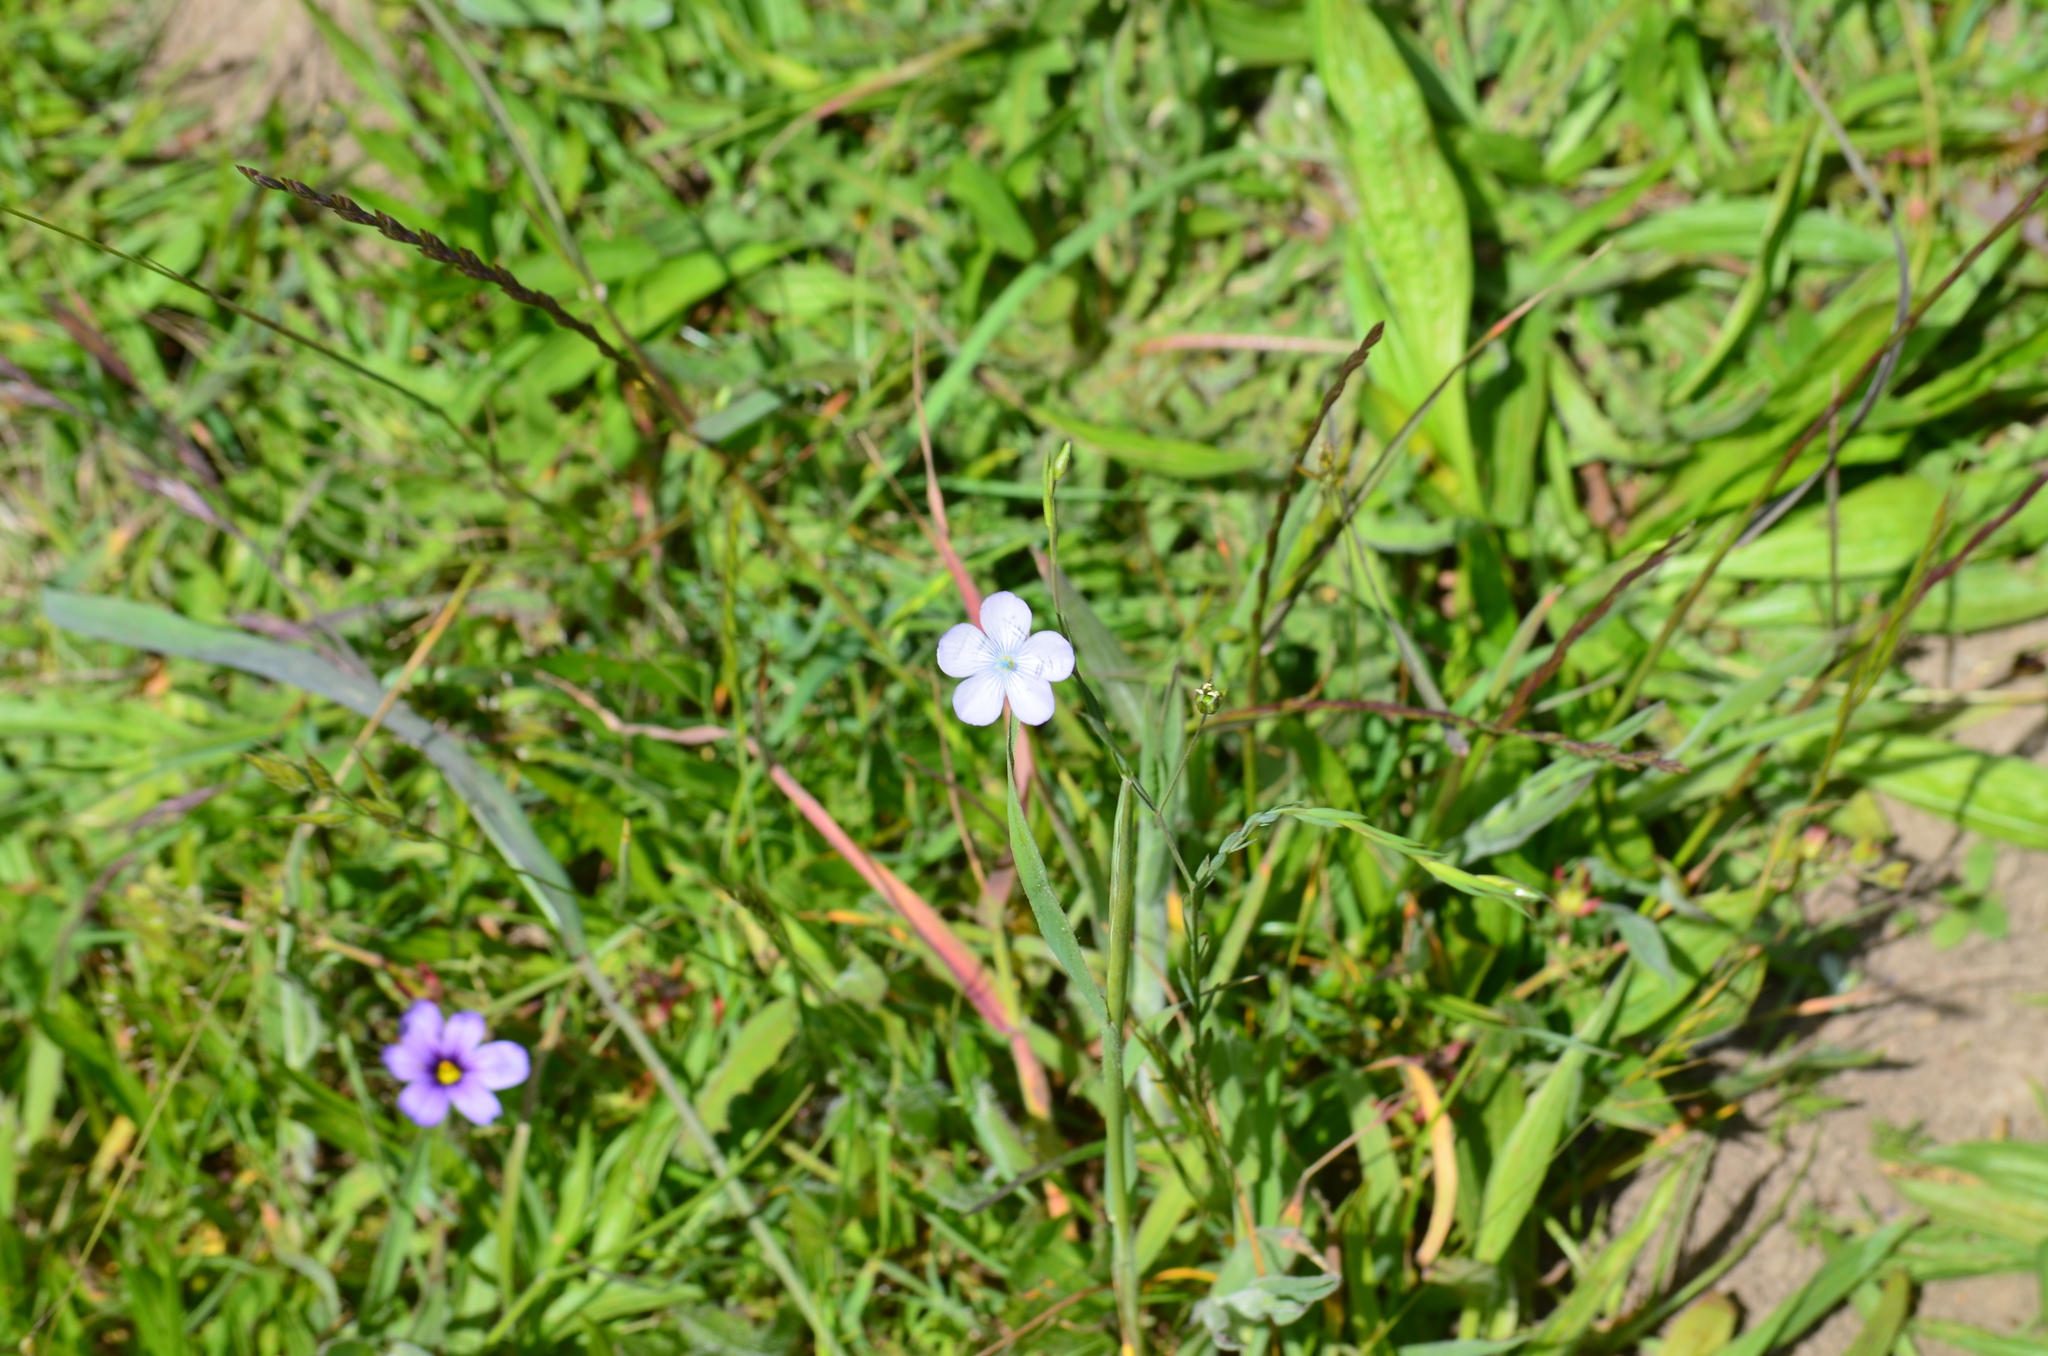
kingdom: Plantae
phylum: Tracheophyta
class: Magnoliopsida
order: Malpighiales
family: Linaceae
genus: Linum
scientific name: Linum bienne
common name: Pale flax
